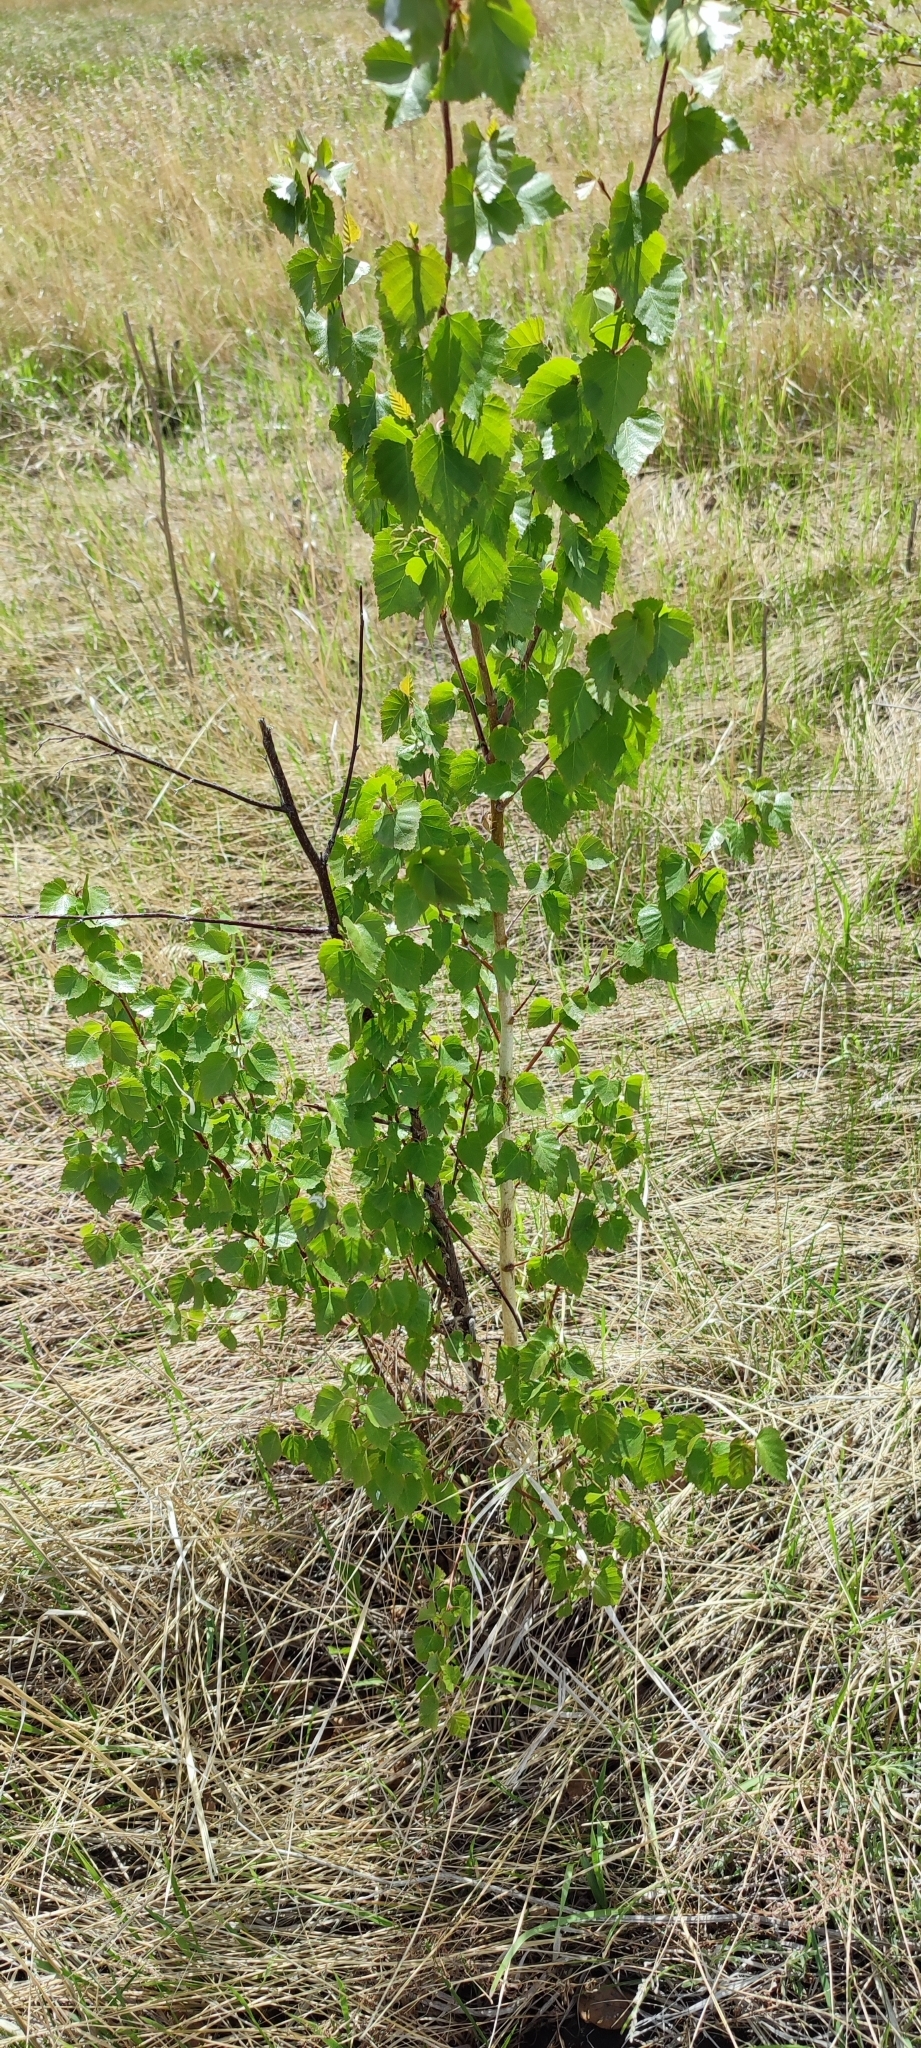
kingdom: Plantae
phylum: Tracheophyta
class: Magnoliopsida
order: Fagales
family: Betulaceae
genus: Betula
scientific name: Betula pendula
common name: Silver birch
